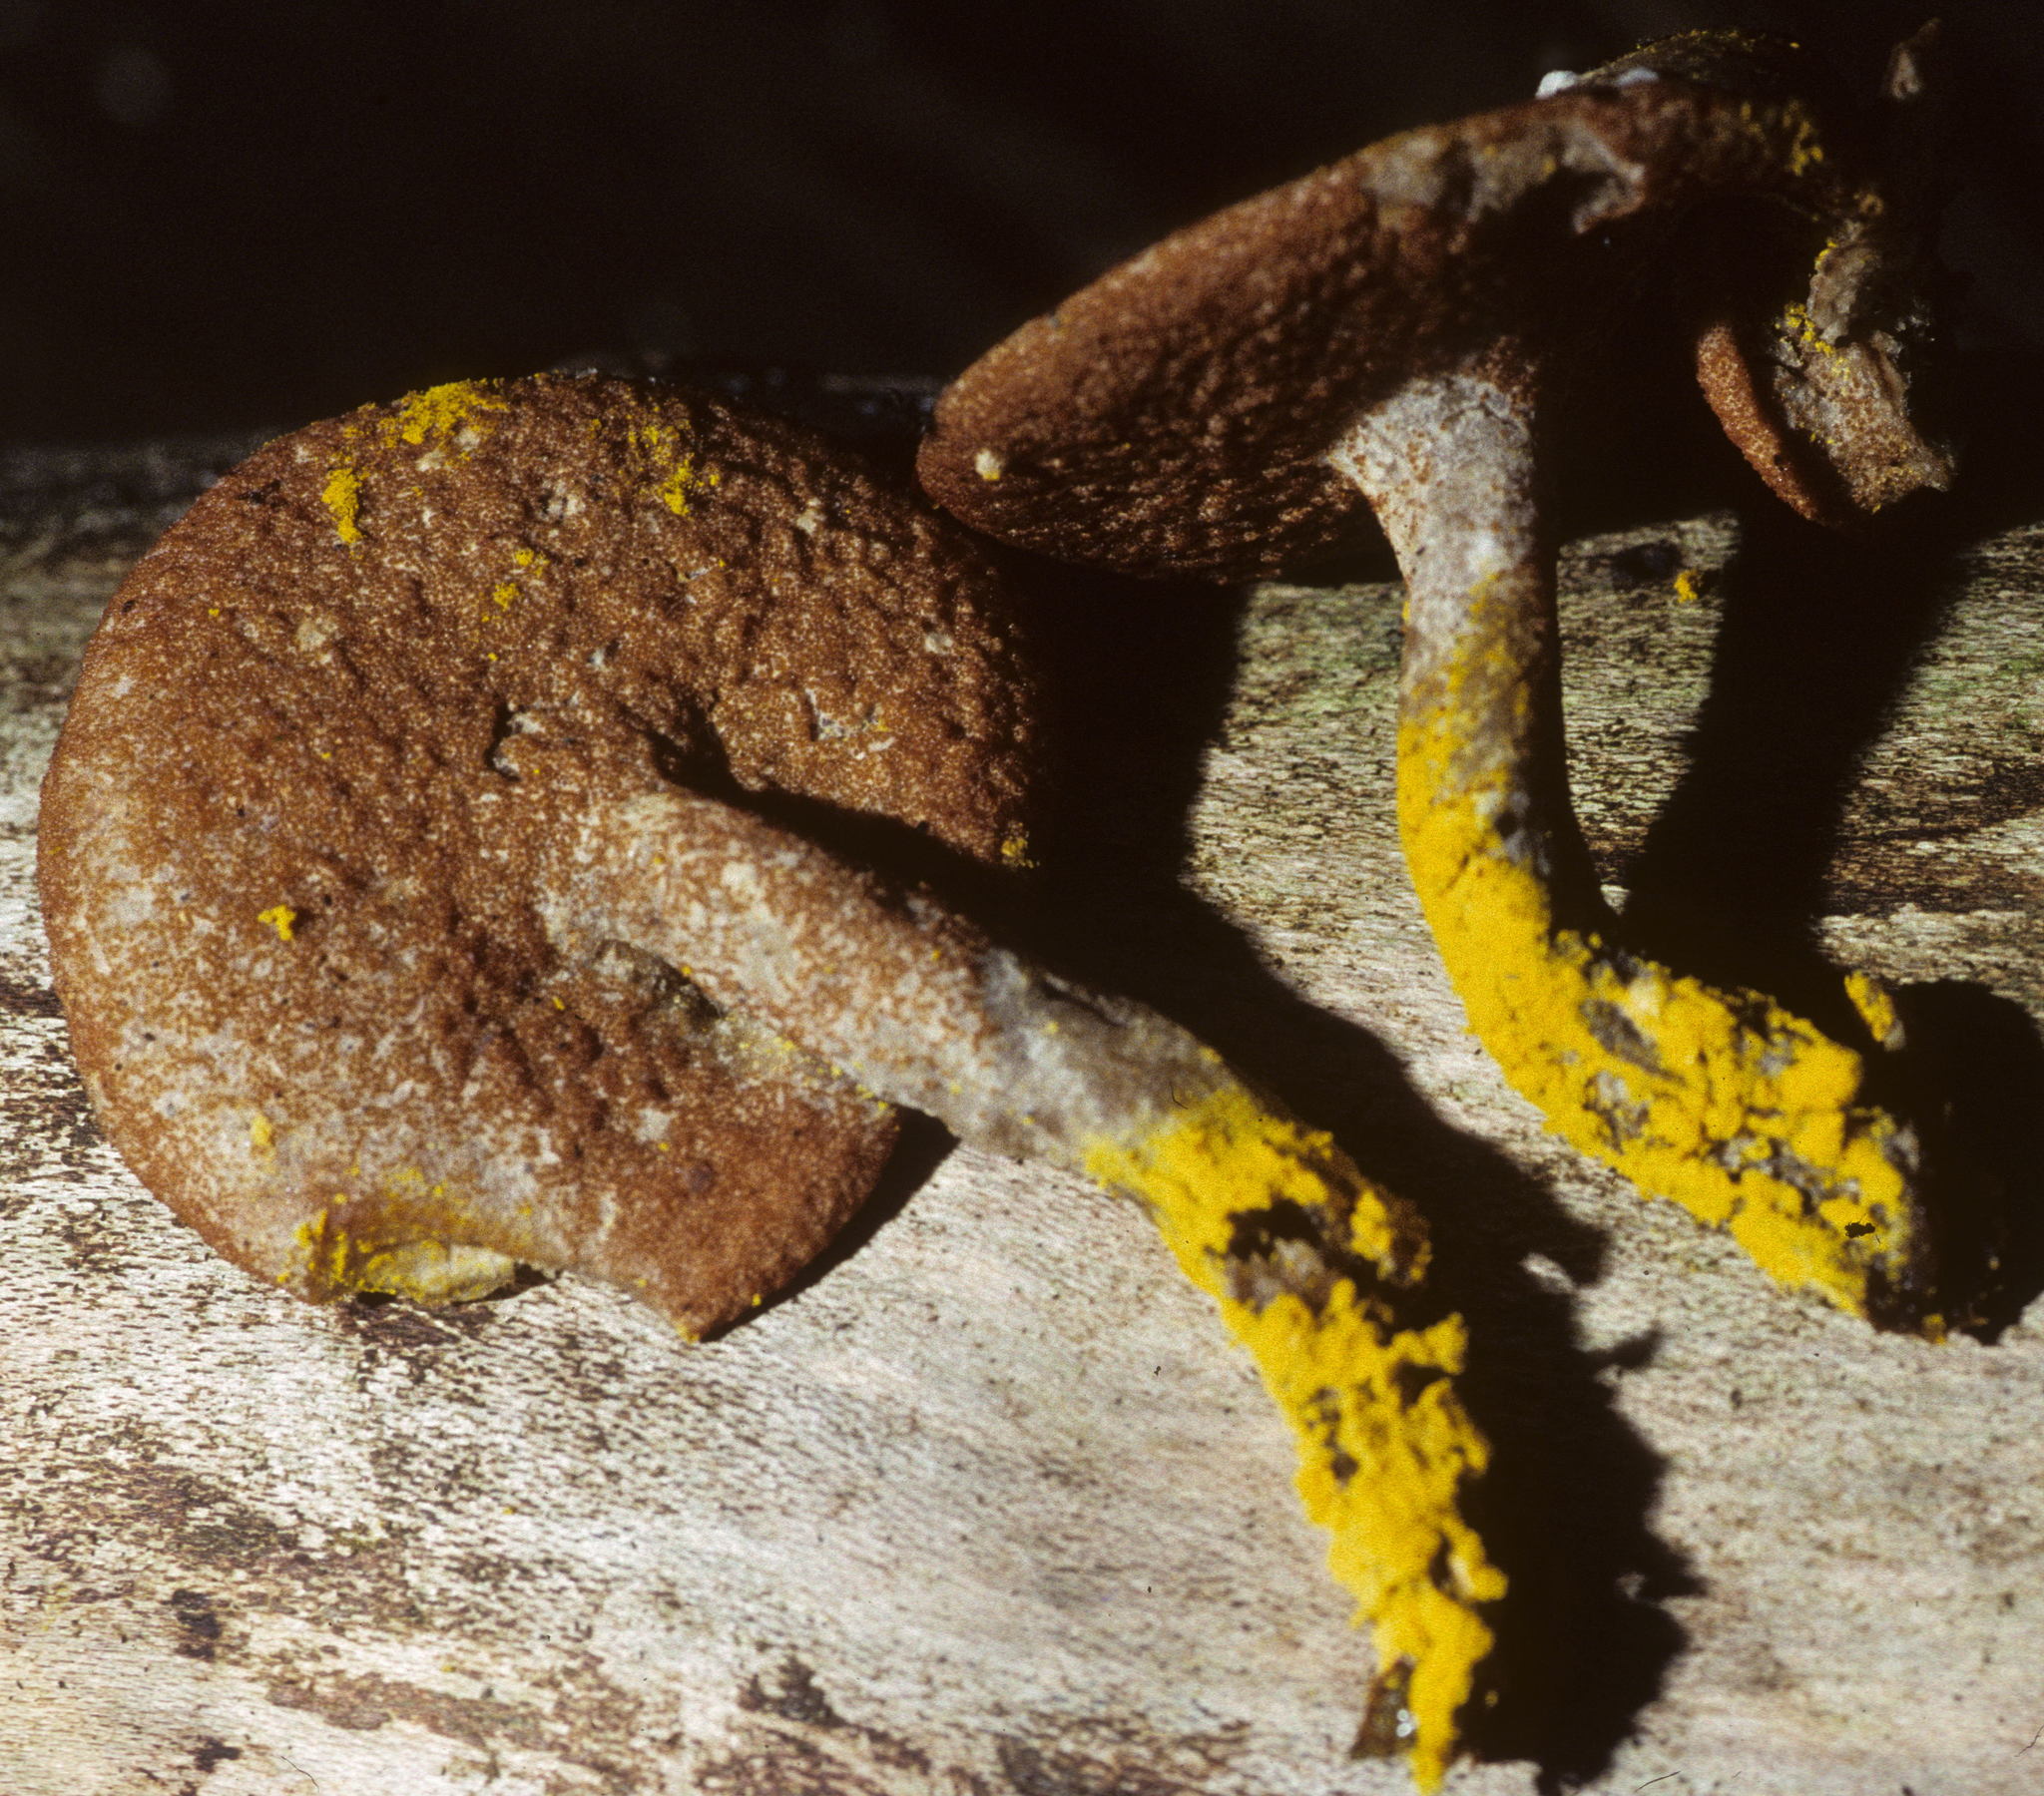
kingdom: Fungi
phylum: Ascomycota
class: Sordariomycetes
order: Hypocreales
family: Hypocreaceae
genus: Hypomyces
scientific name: Hypomyces chrysospermus
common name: Bolete mould
